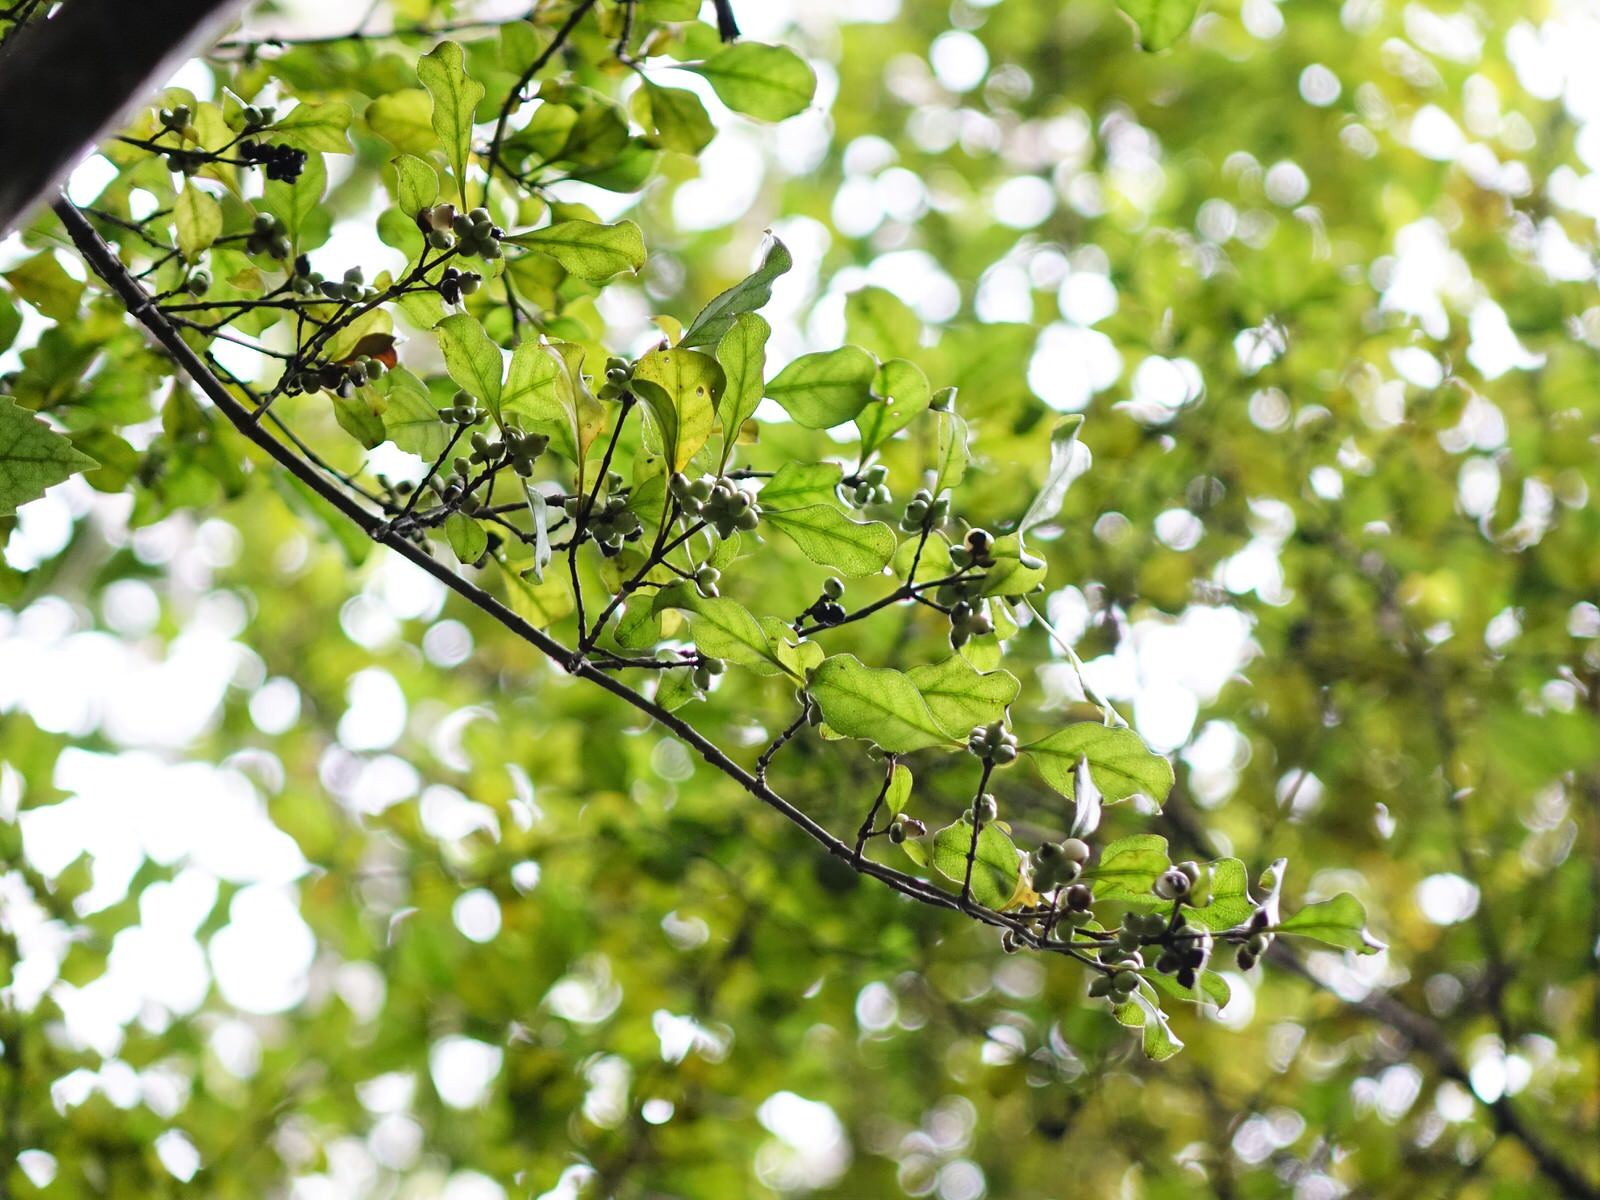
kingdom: Plantae
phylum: Tracheophyta
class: Magnoliopsida
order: Gentianales
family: Rubiaceae
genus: Coprosma
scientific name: Coprosma arborea
